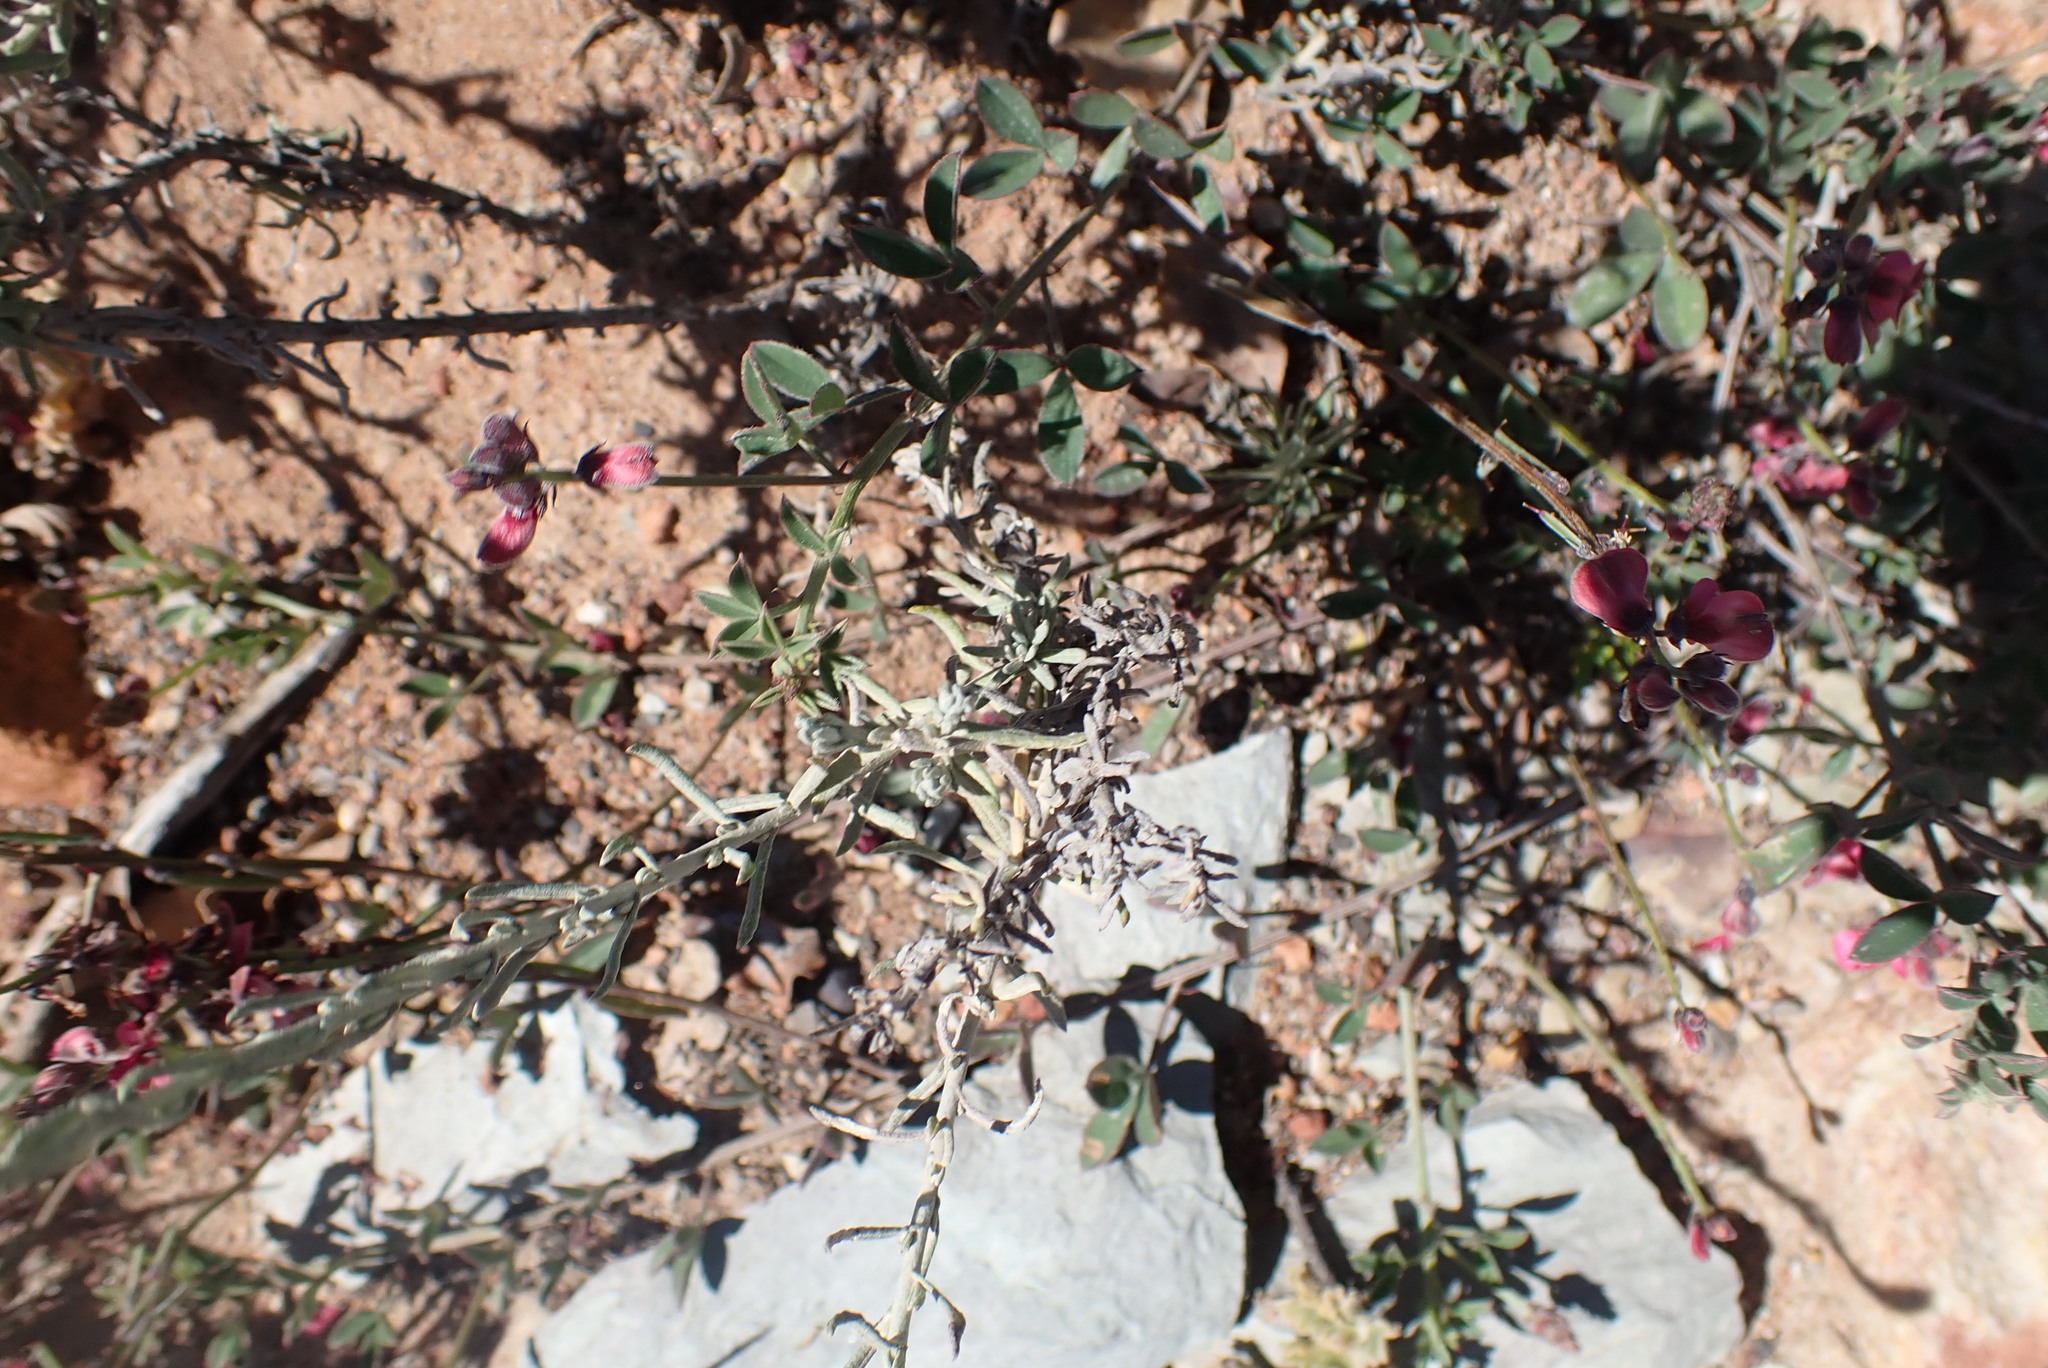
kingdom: Plantae
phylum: Tracheophyta
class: Magnoliopsida
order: Fabales
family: Fabaceae
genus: Indigofera
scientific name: Indigofera heterophylla
